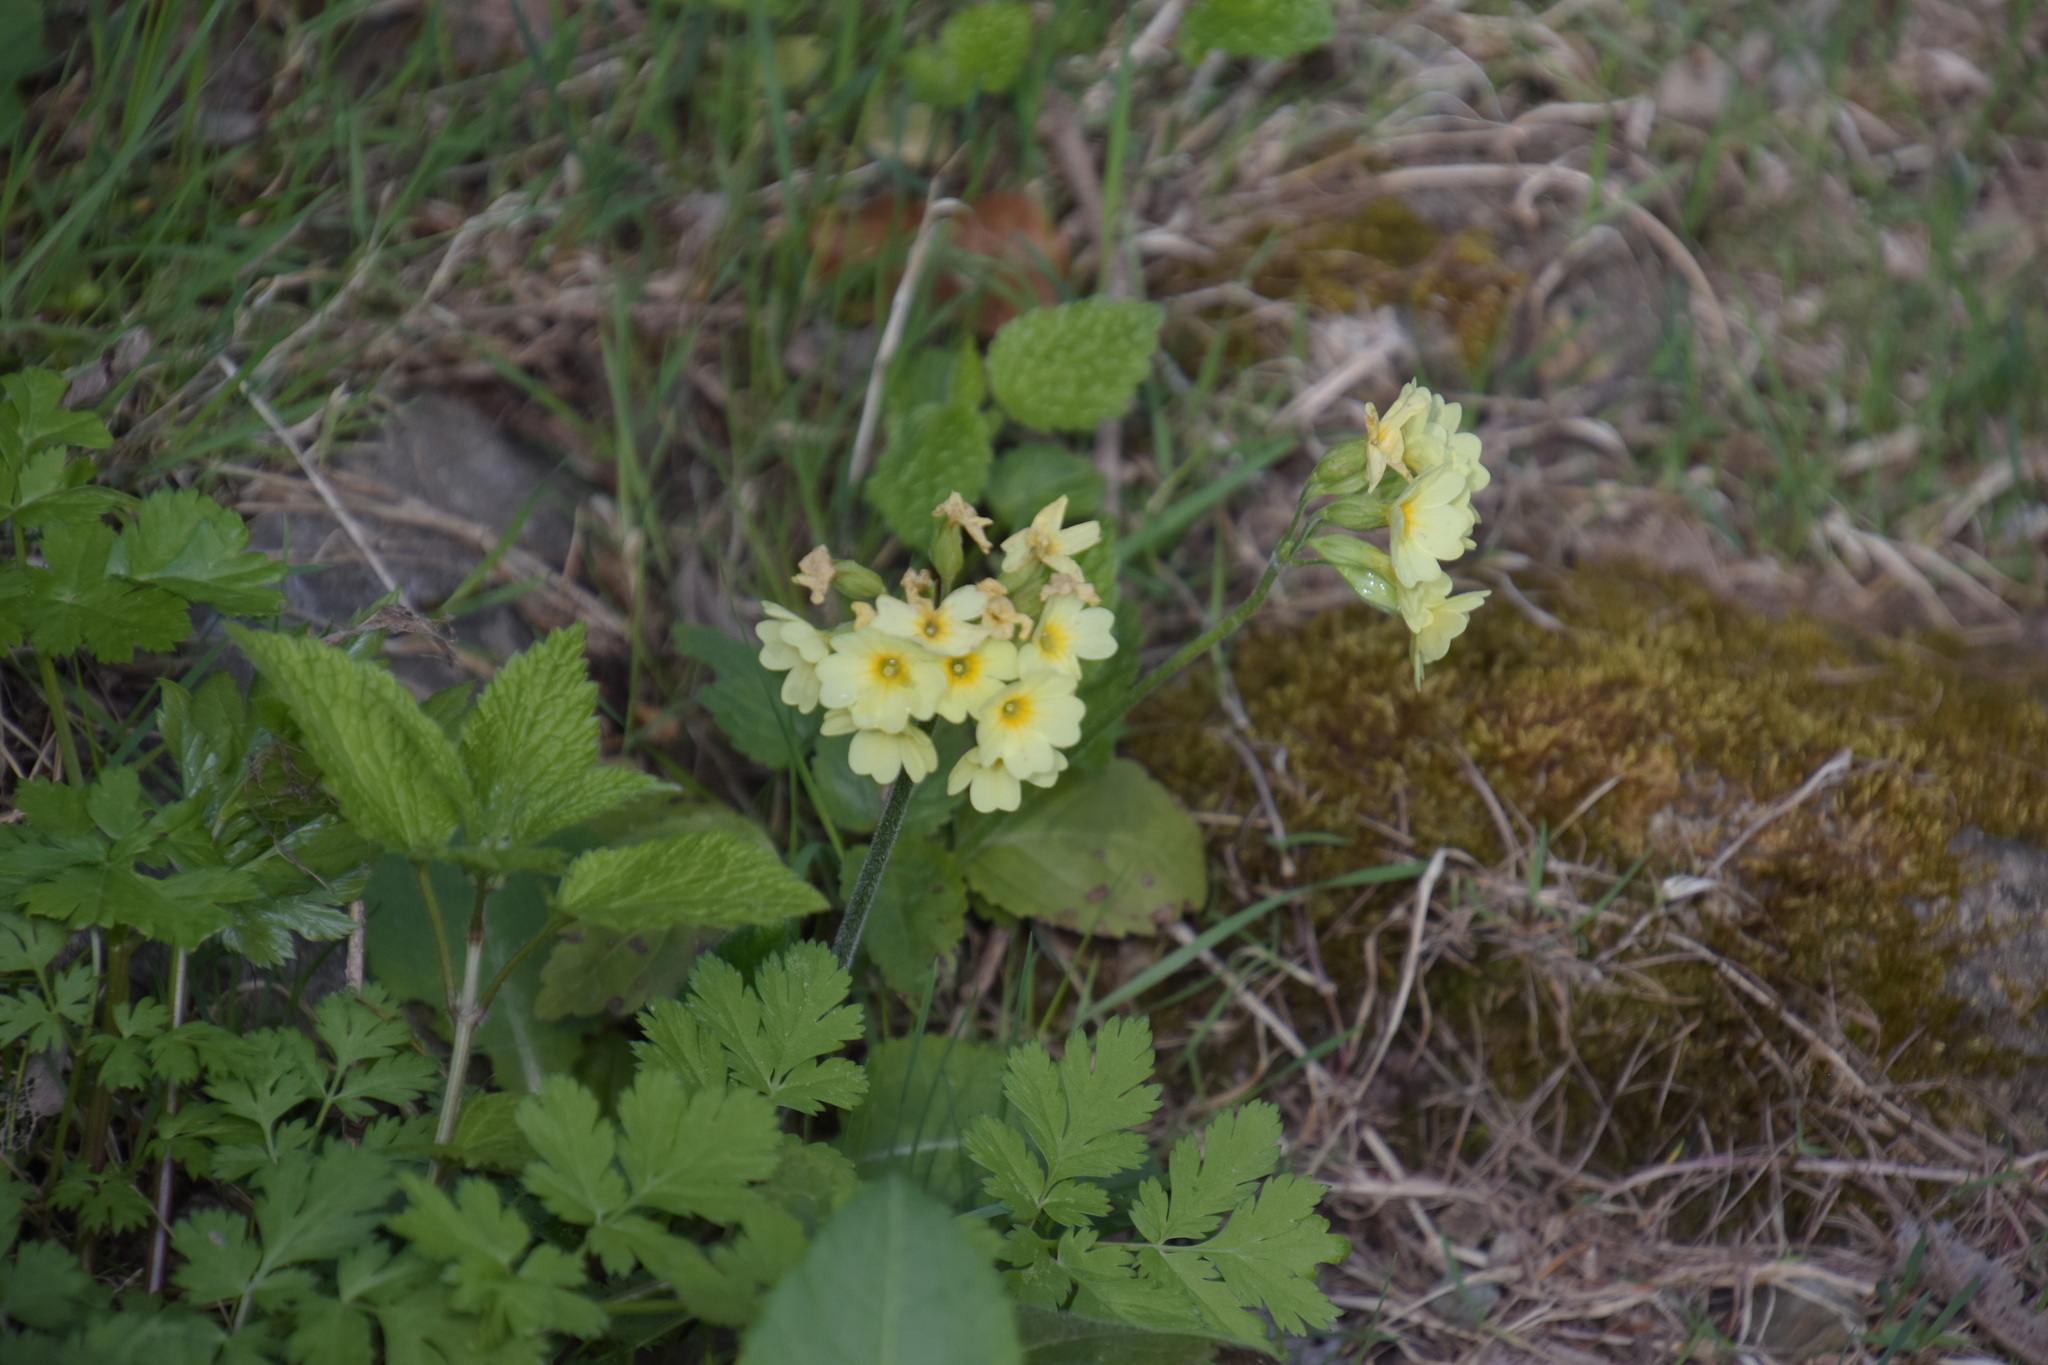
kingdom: Plantae
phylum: Tracheophyta
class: Magnoliopsida
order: Ericales
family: Primulaceae
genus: Primula
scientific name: Primula elatior
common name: Oxlip
